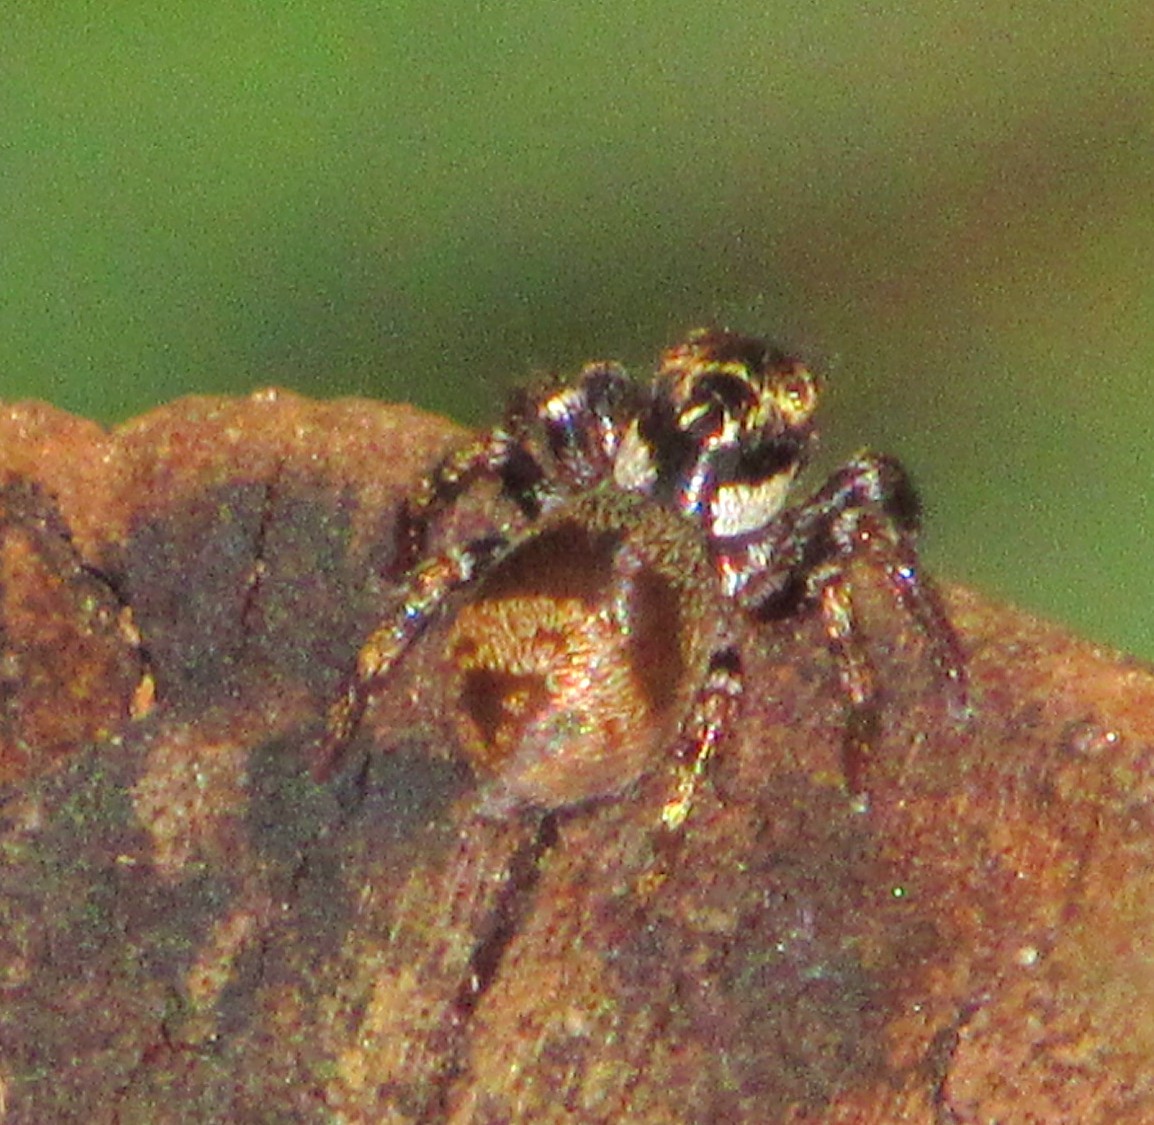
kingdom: Animalia
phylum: Arthropoda
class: Arachnida
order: Araneae
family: Salticidae
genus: Corythalia
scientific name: Corythalia conferta
